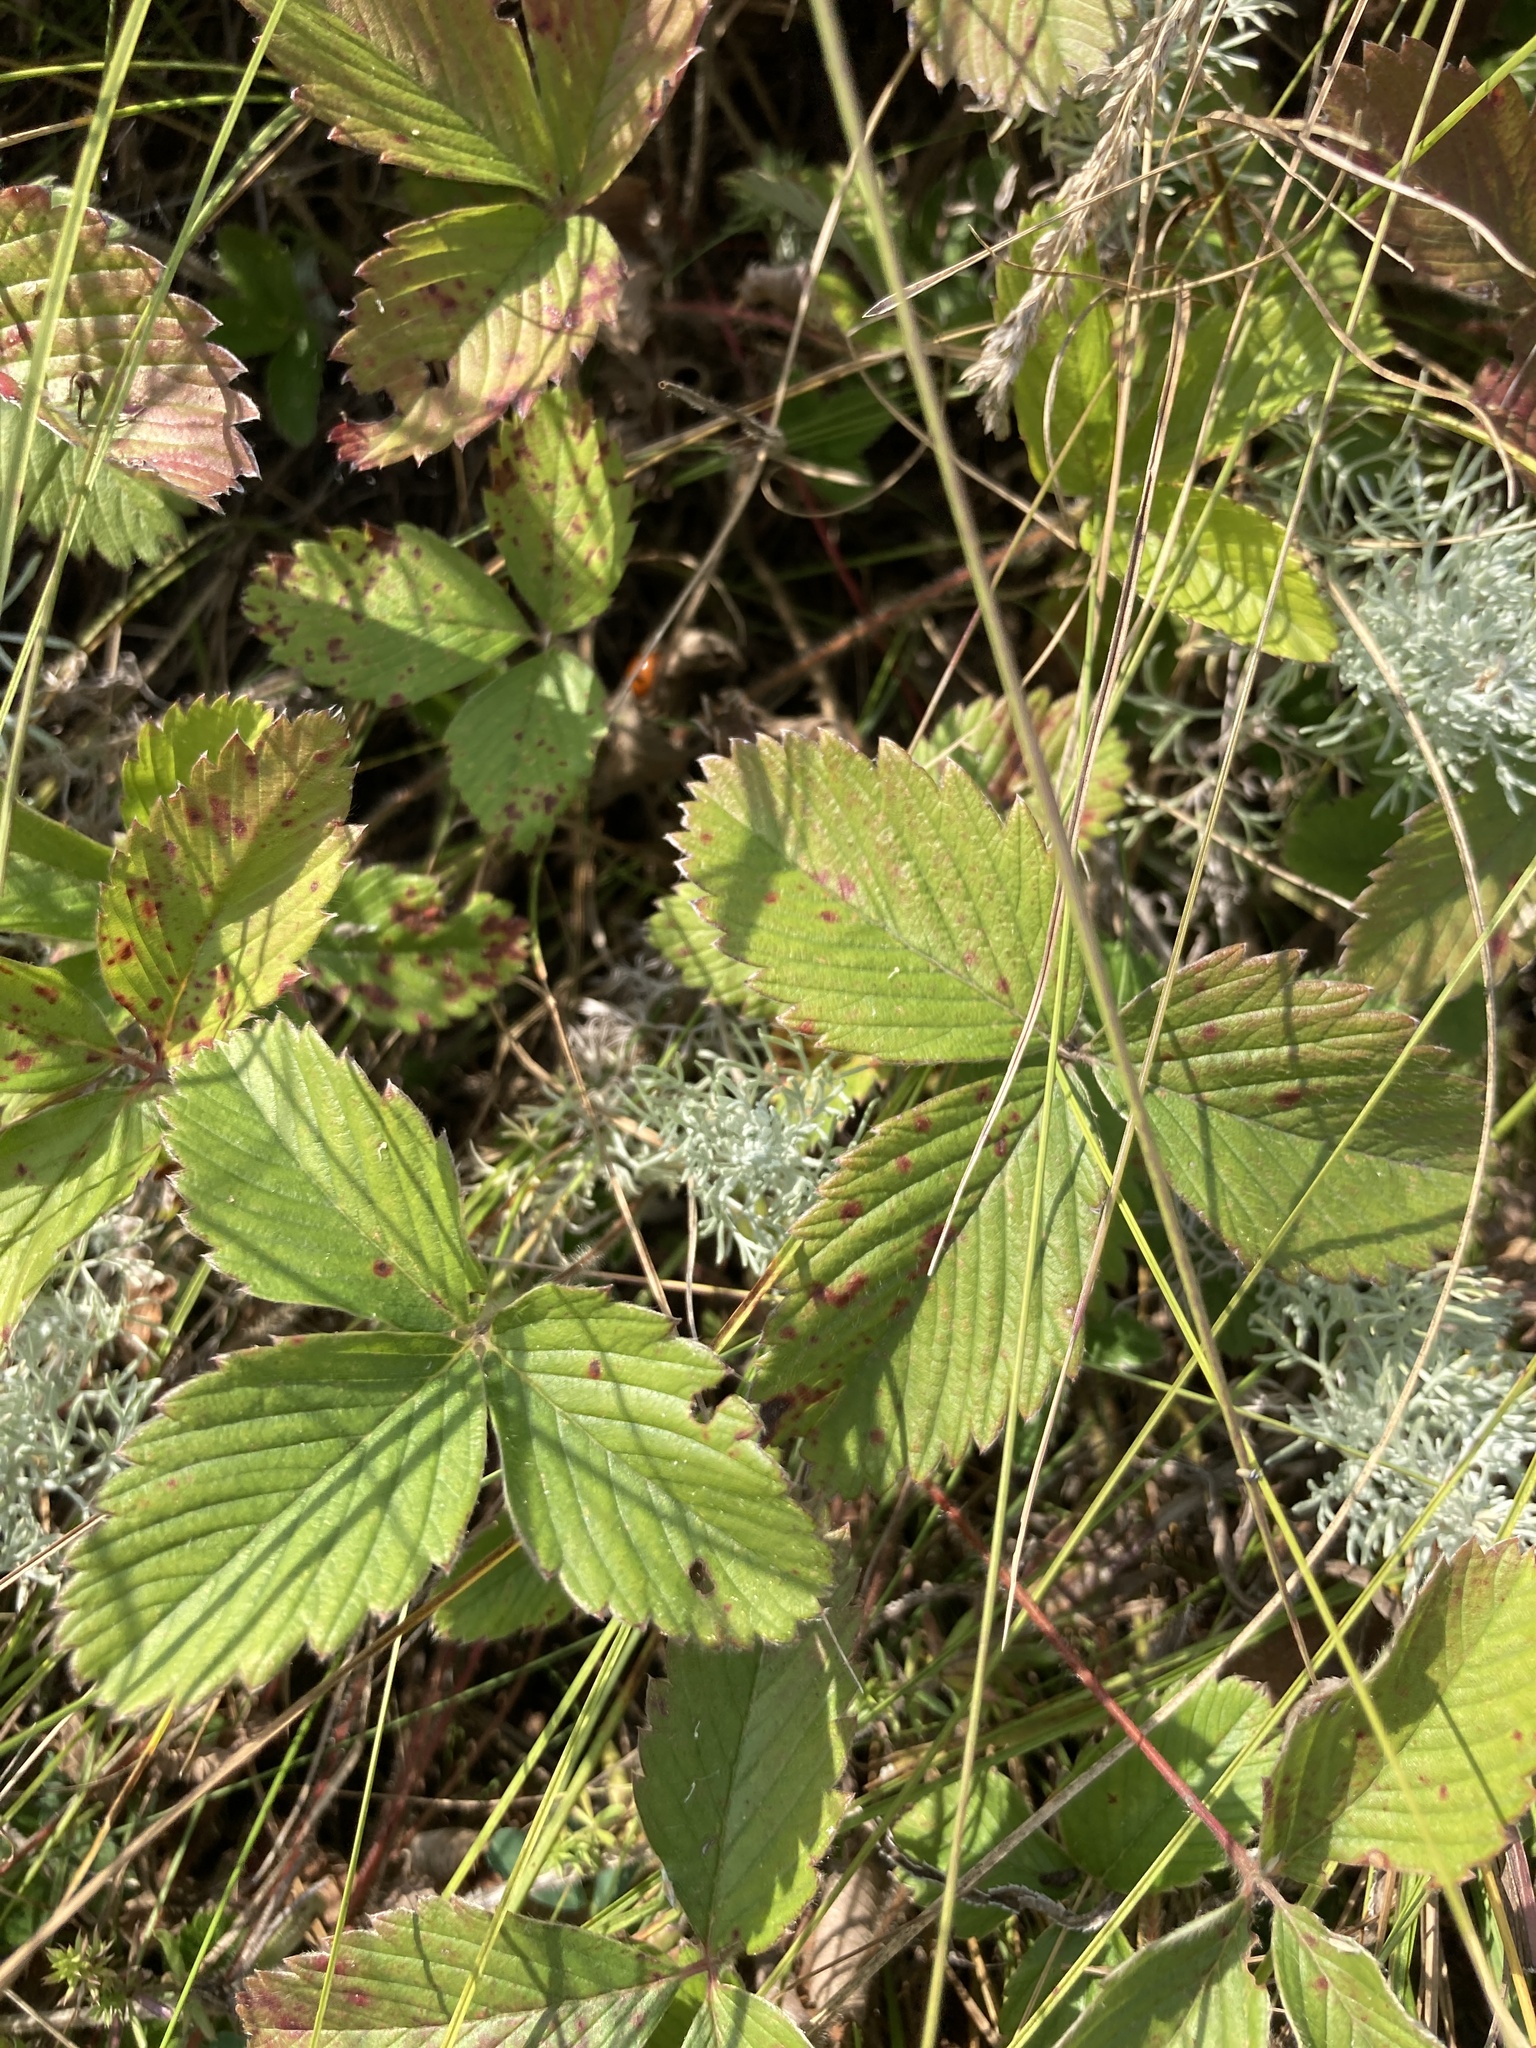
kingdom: Plantae
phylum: Tracheophyta
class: Magnoliopsida
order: Rosales
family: Rosaceae
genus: Fragaria
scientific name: Fragaria viridis
